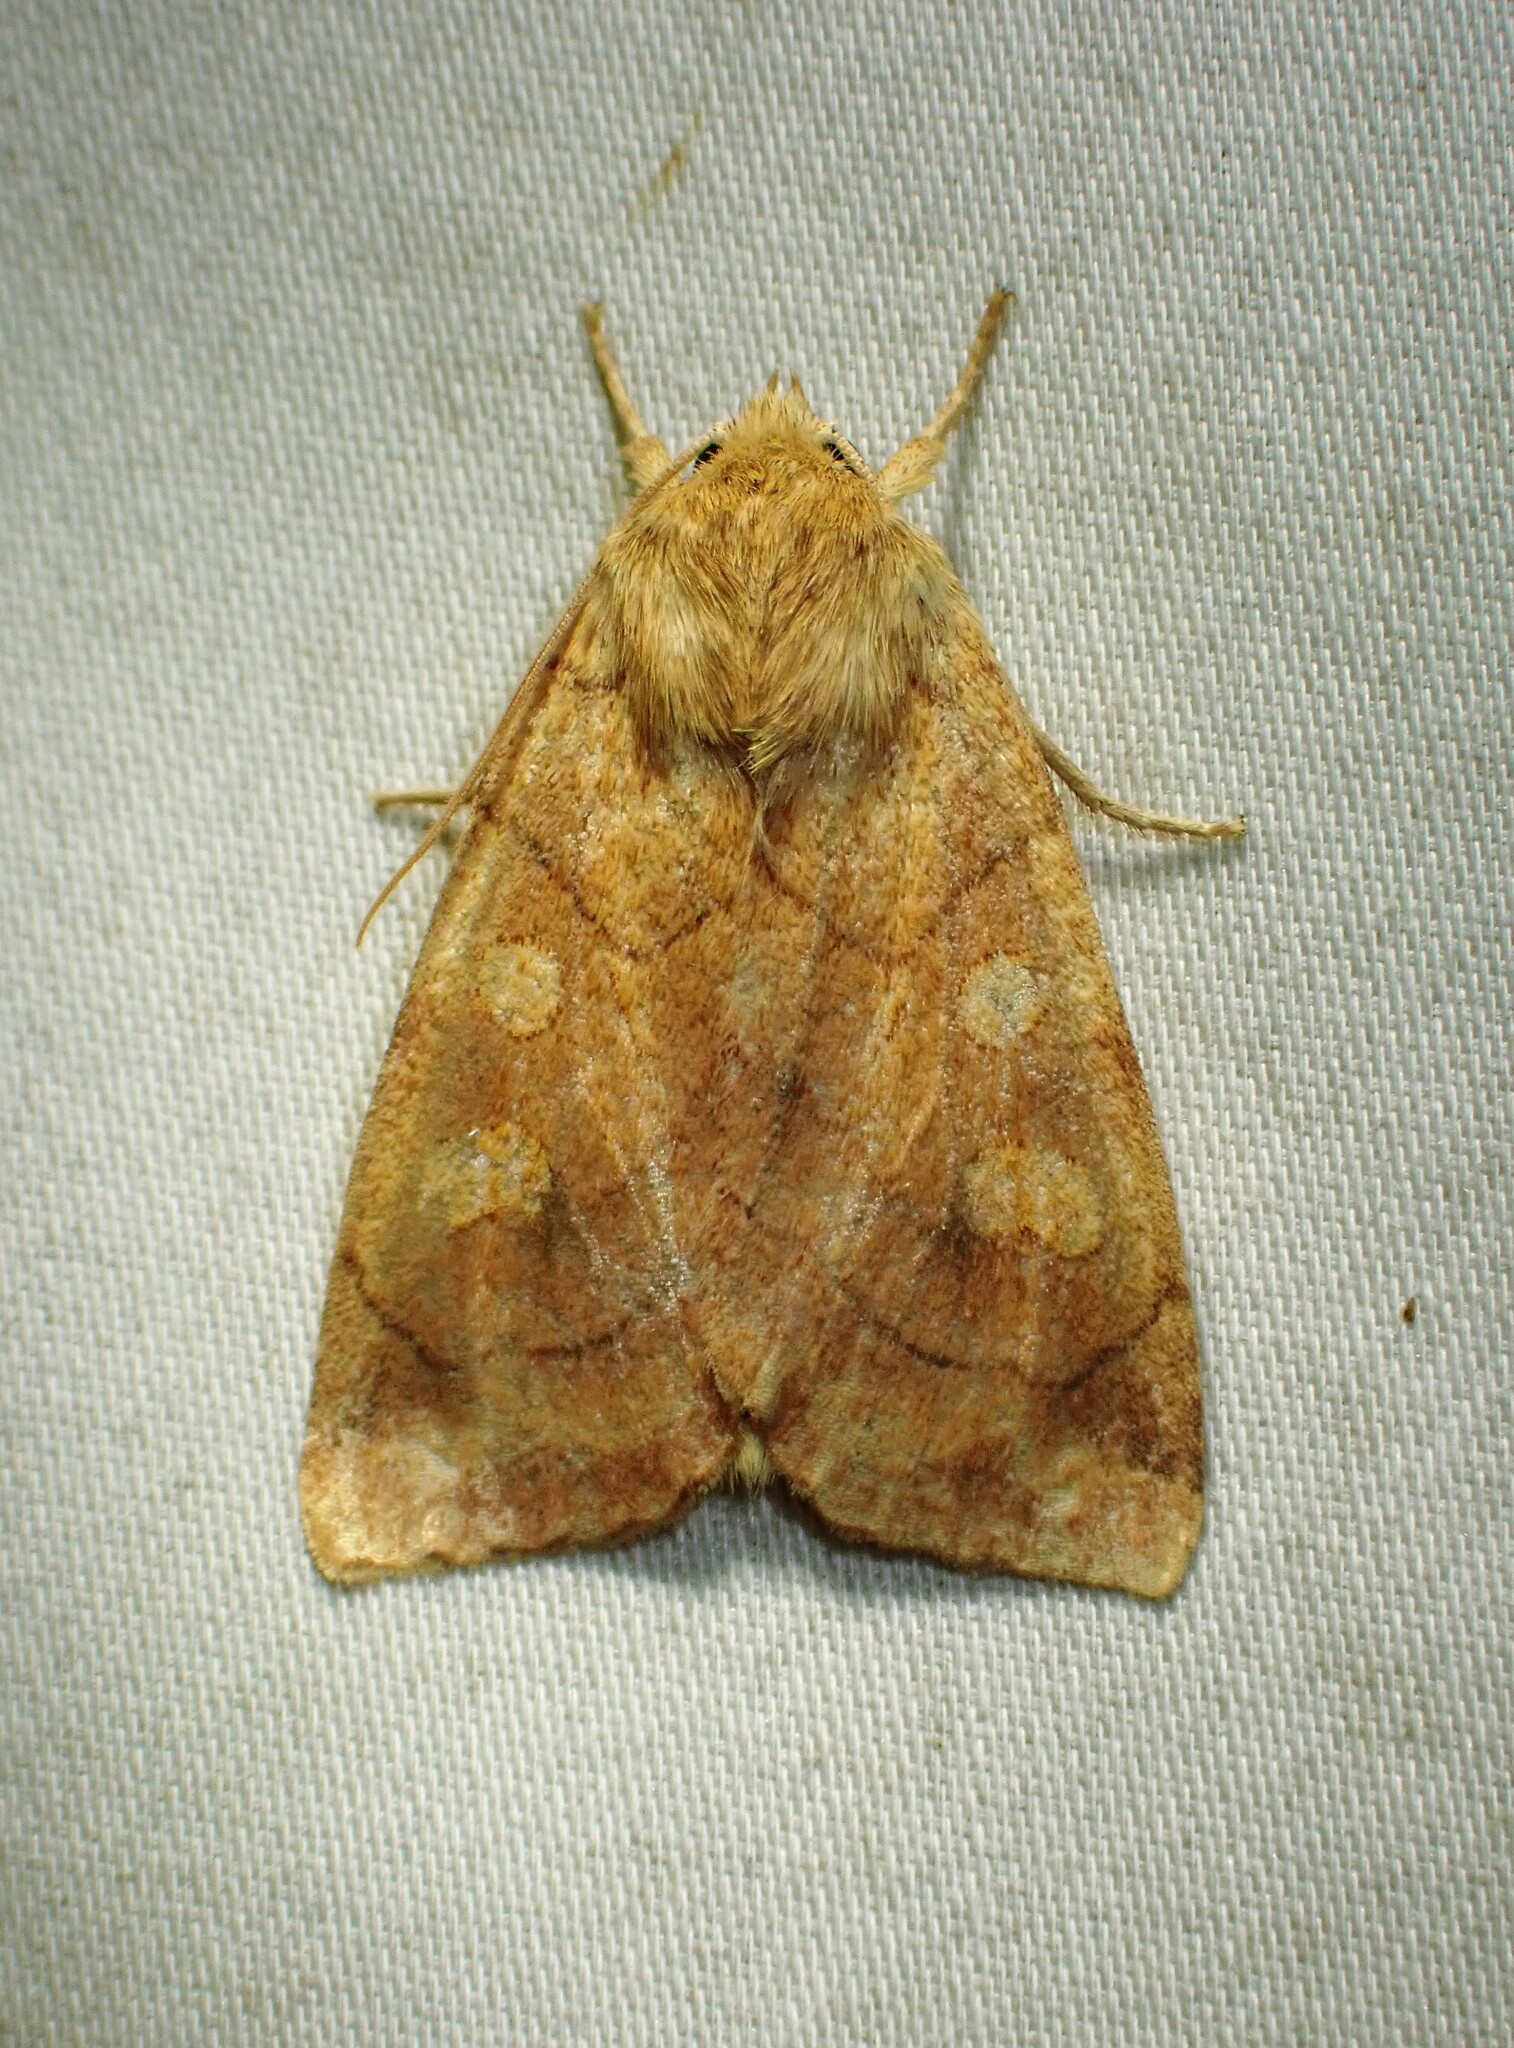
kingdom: Animalia
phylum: Arthropoda
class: Insecta
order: Lepidoptera
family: Noctuidae
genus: Enargia
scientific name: Enargia decolor
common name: Aspen twoleaf tier moth
